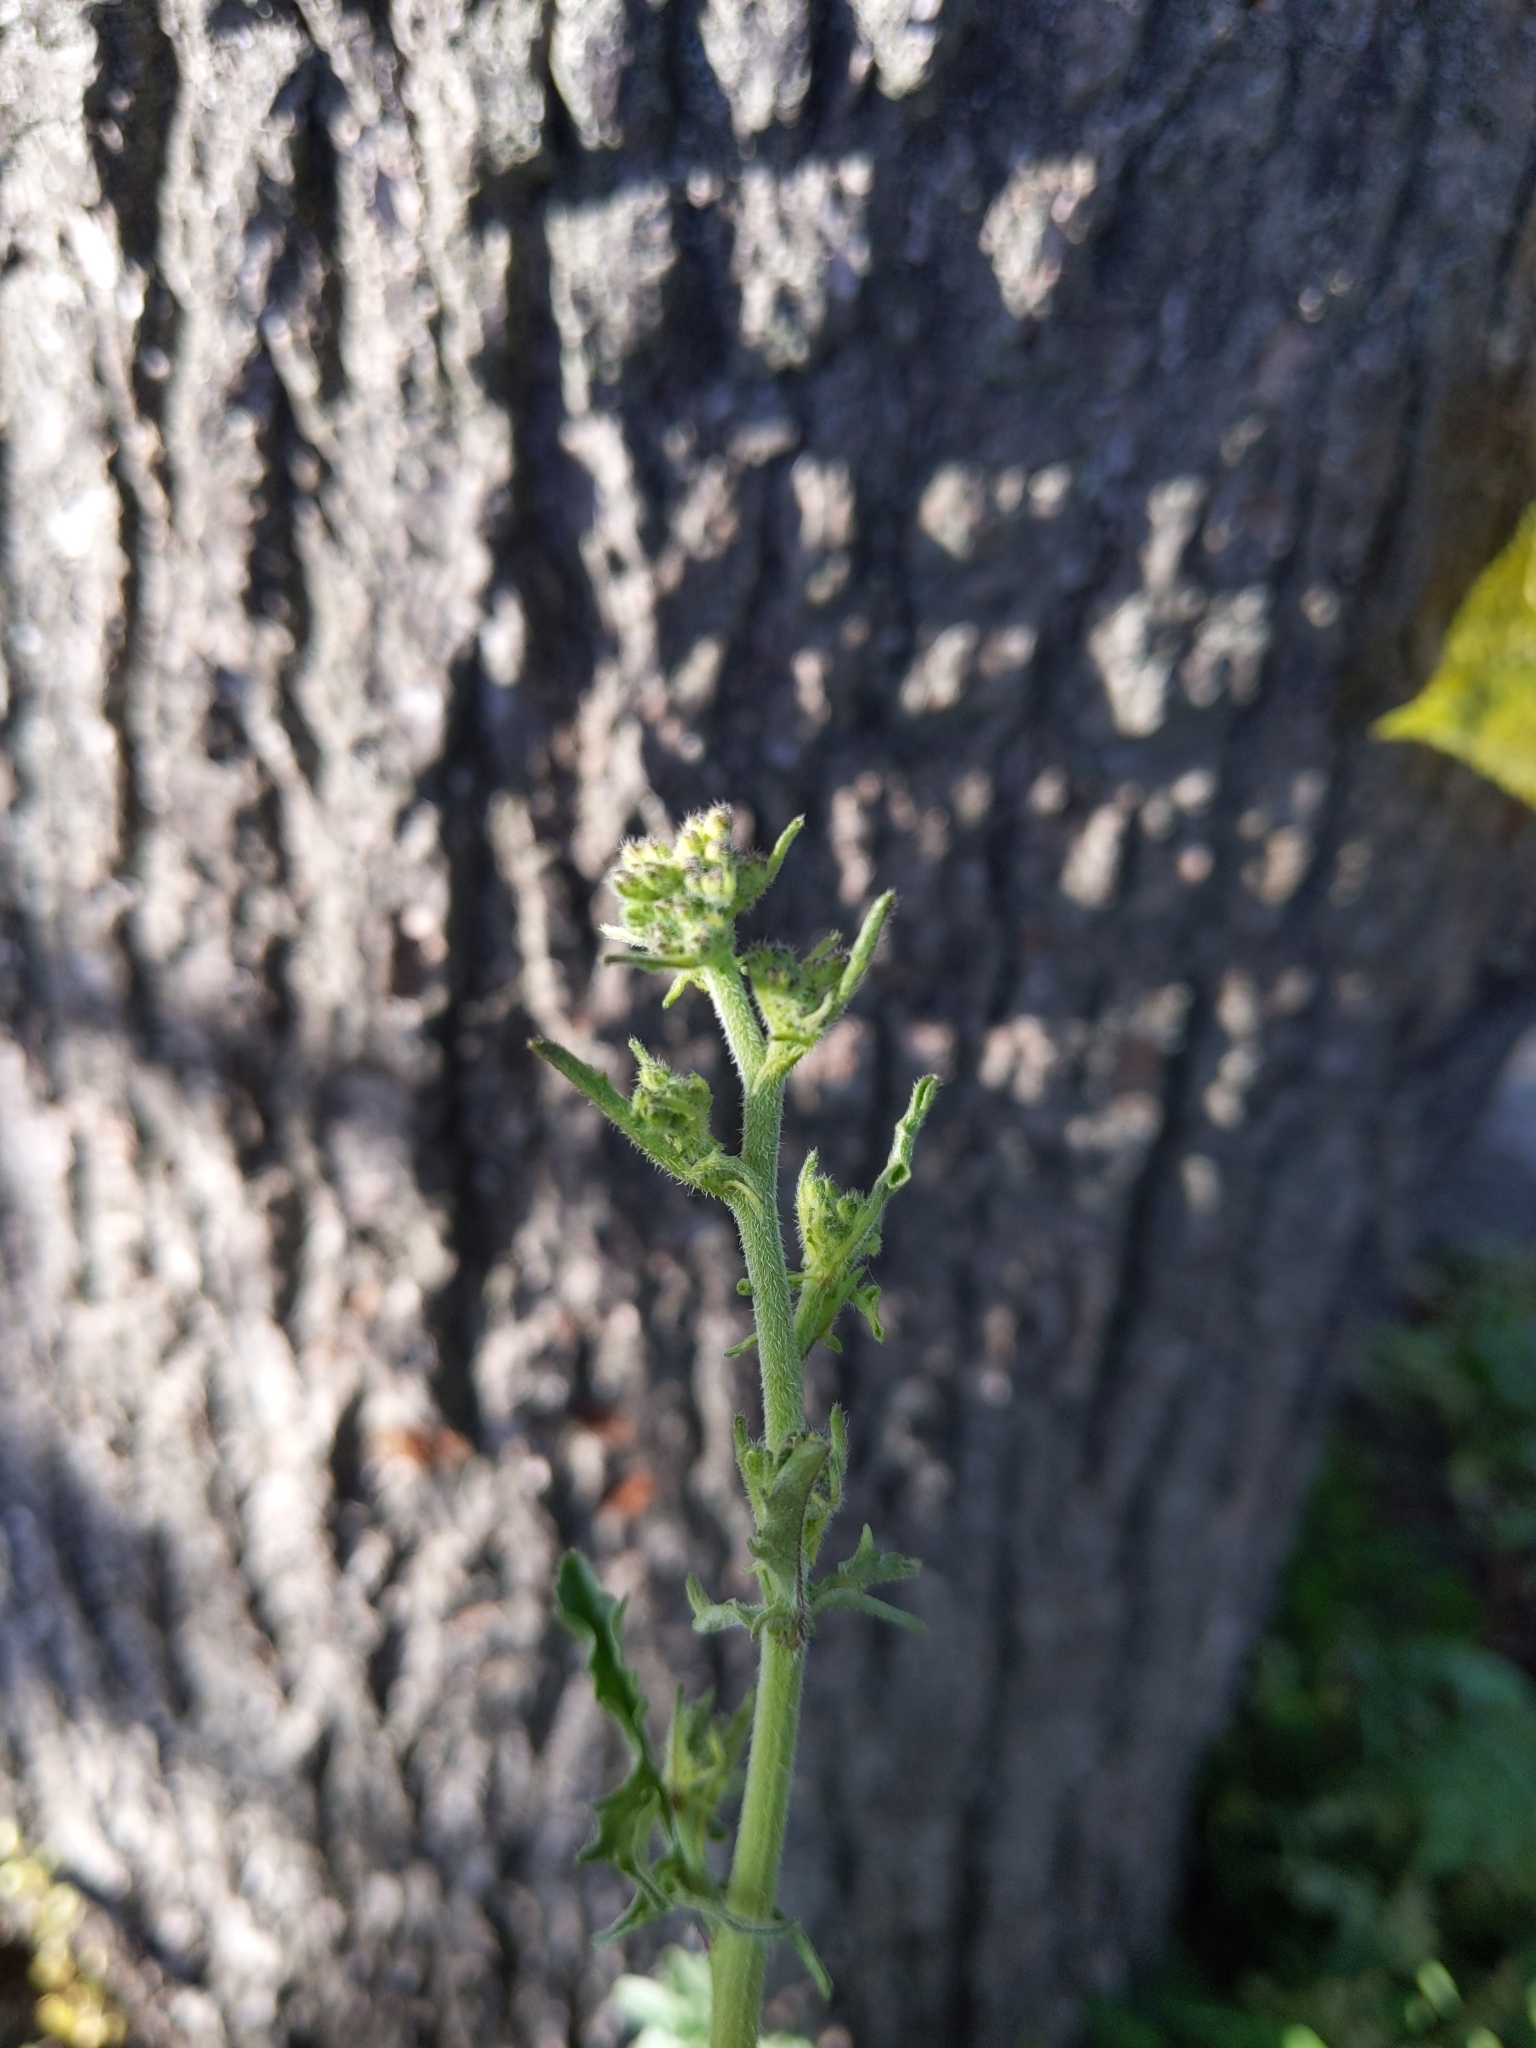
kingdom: Plantae
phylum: Tracheophyta
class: Magnoliopsida
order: Brassicales
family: Brassicaceae
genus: Sisymbrium
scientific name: Sisymbrium officinale
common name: Hedge mustard
